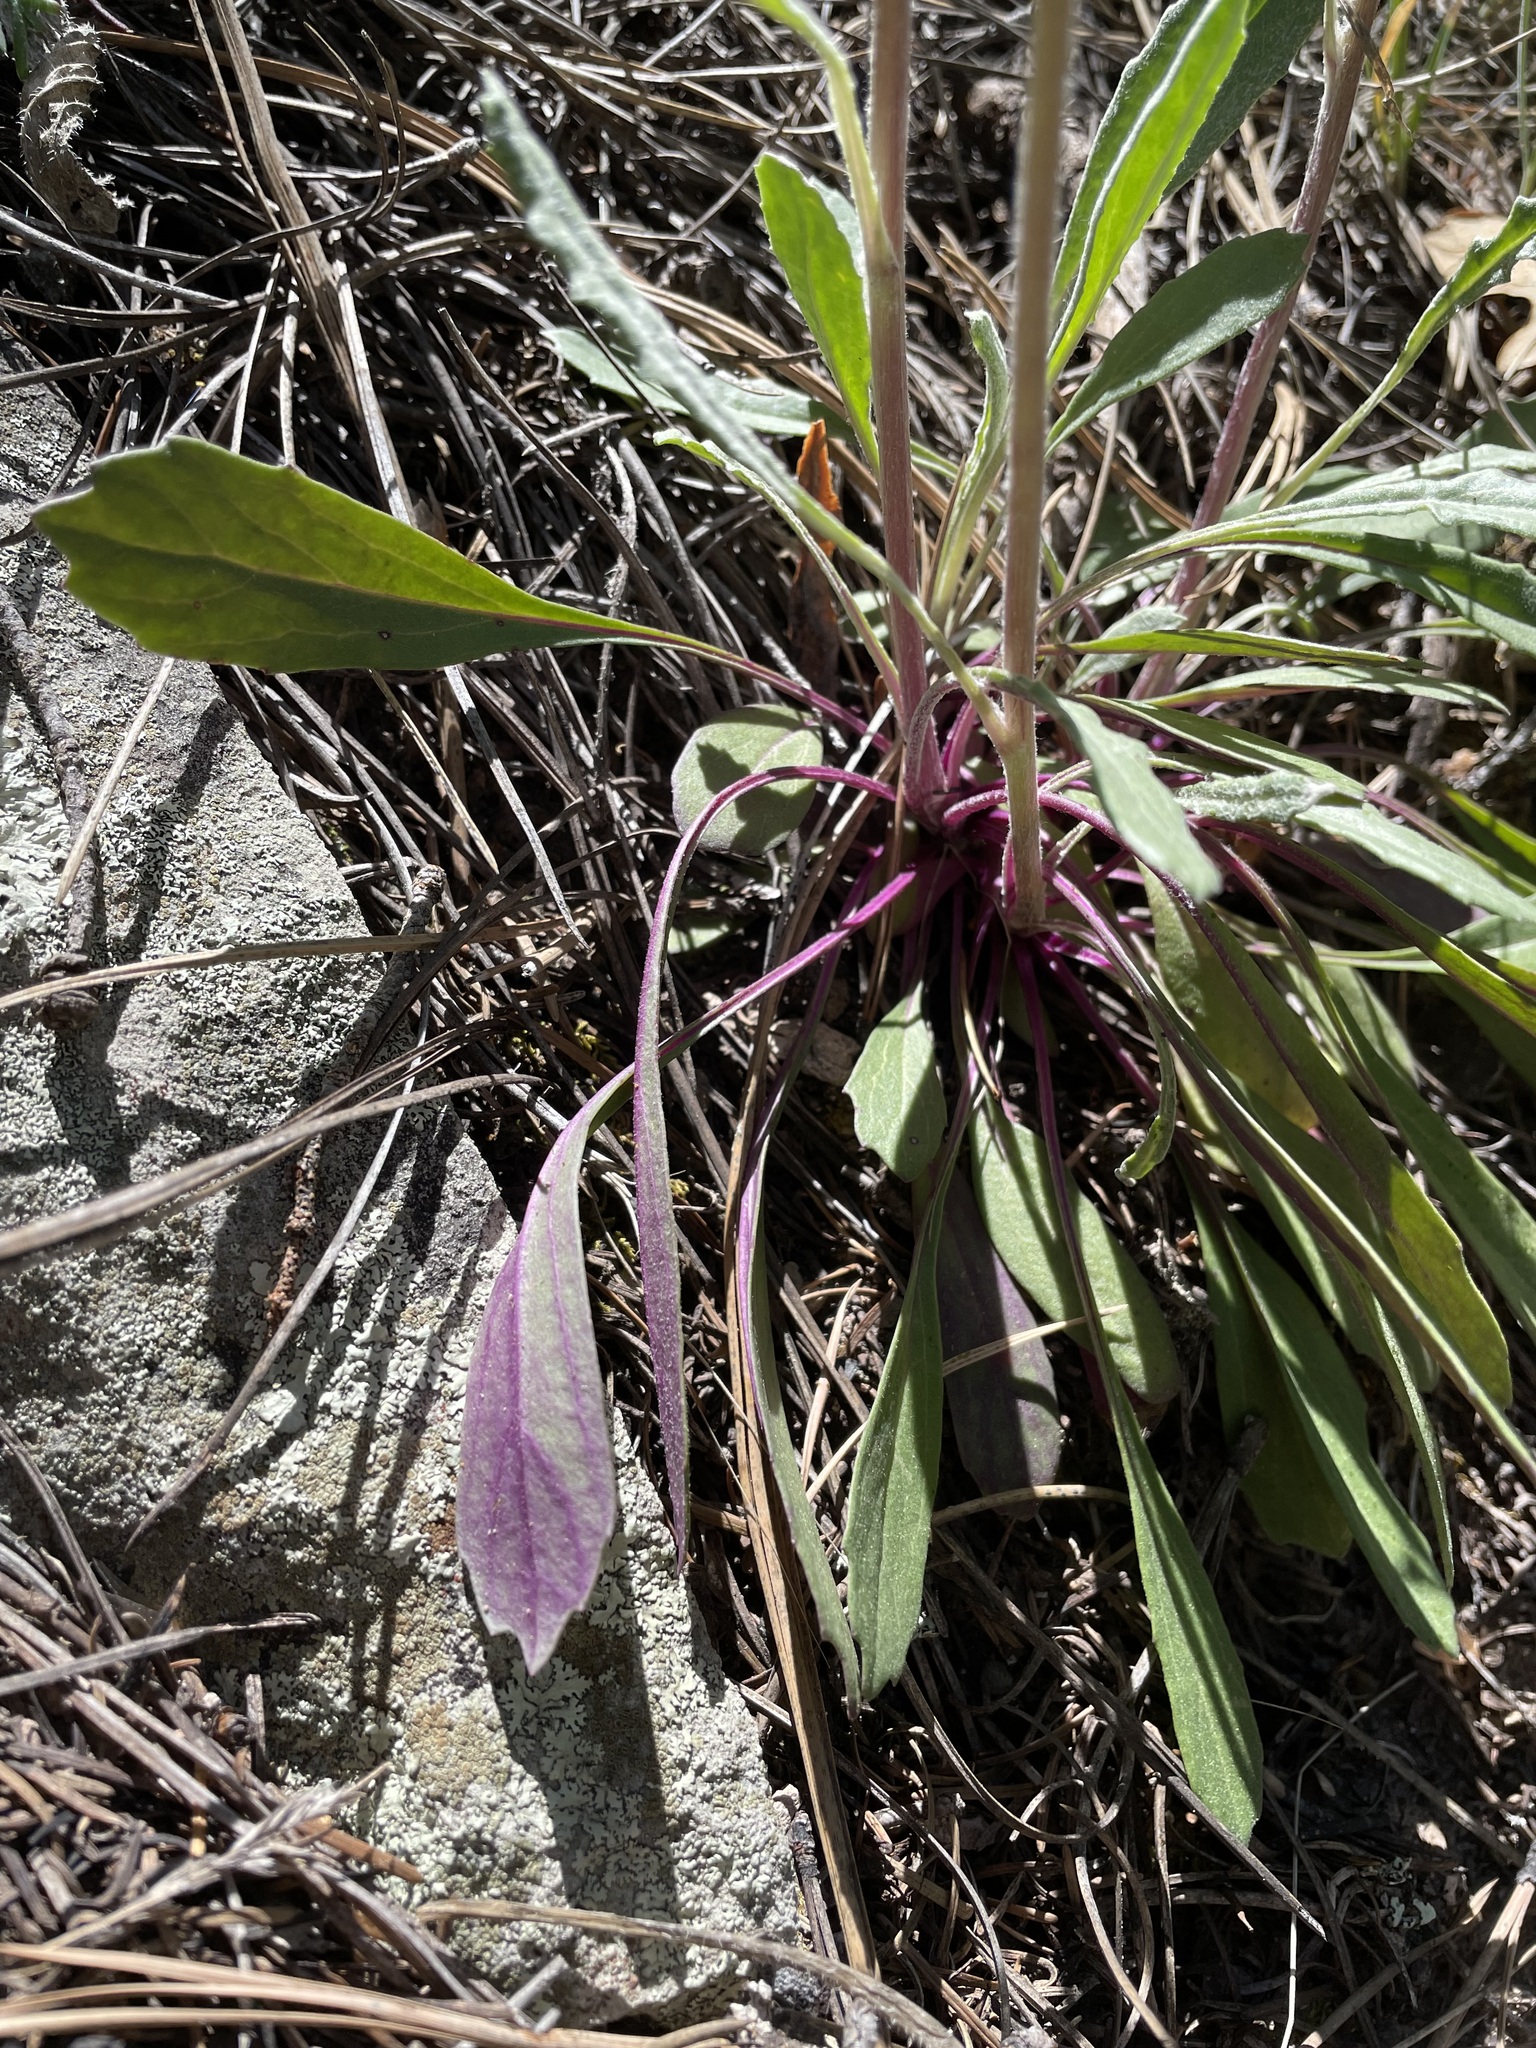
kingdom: Plantae
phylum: Tracheophyta
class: Magnoliopsida
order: Asterales
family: Asteraceae
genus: Packera
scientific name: Packera neomexicana
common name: New mexico butterweed
